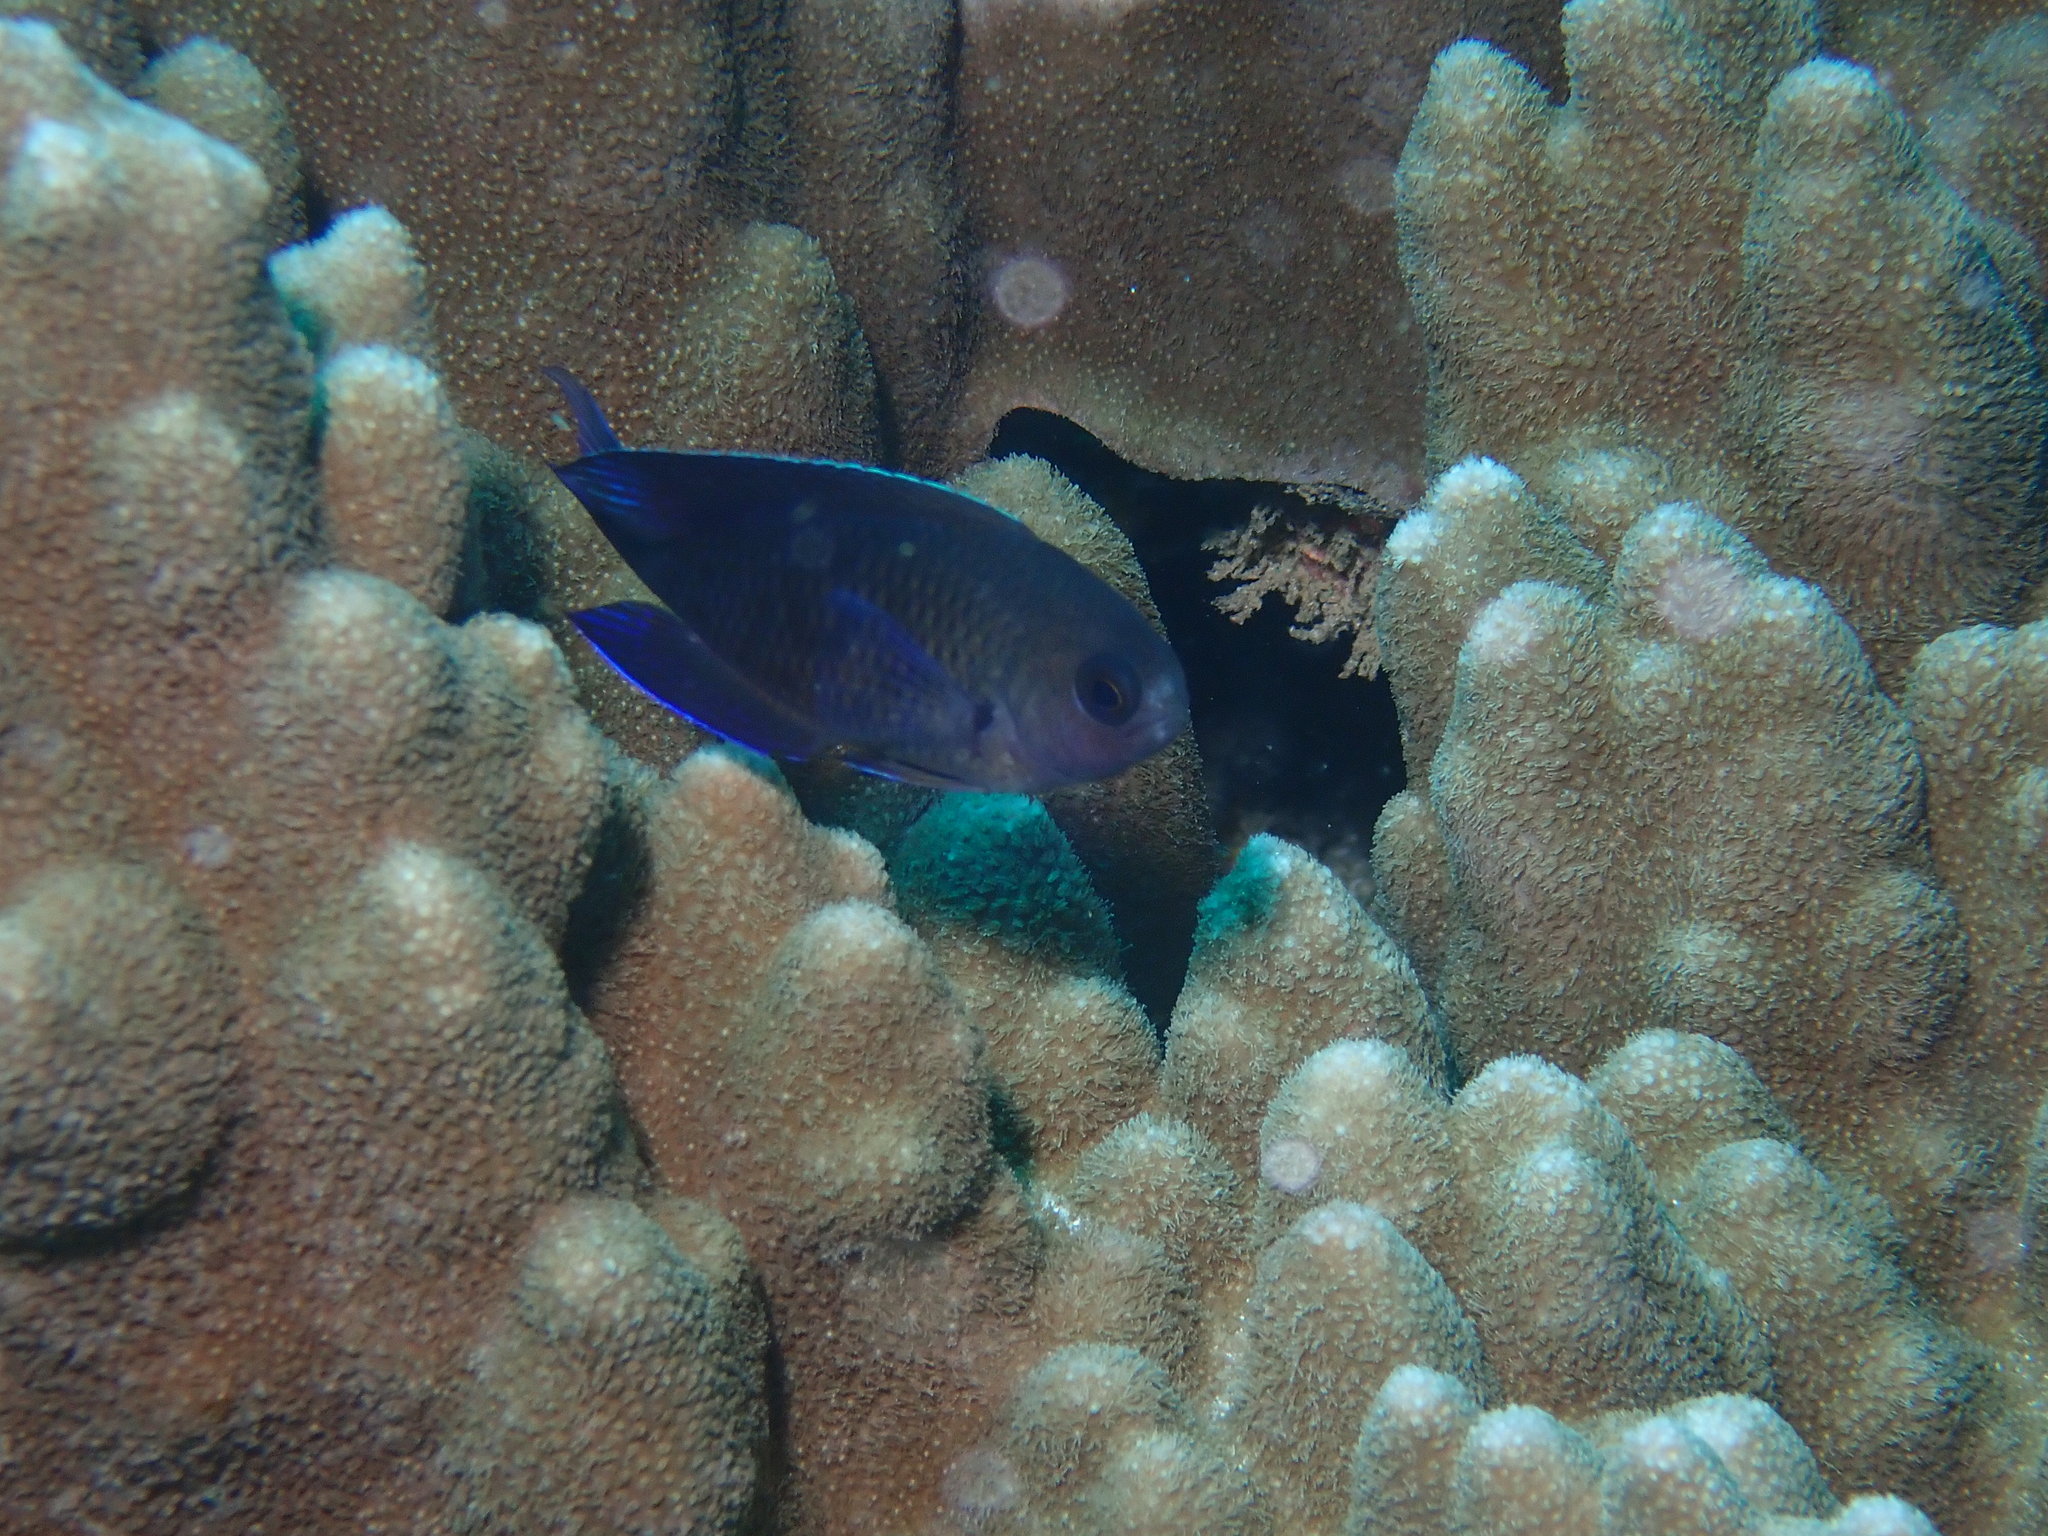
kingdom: Animalia
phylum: Chordata
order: Perciformes
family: Pomacentridae
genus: Chrysiptera
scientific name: Chrysiptera notialis
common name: Southern demoiselle
